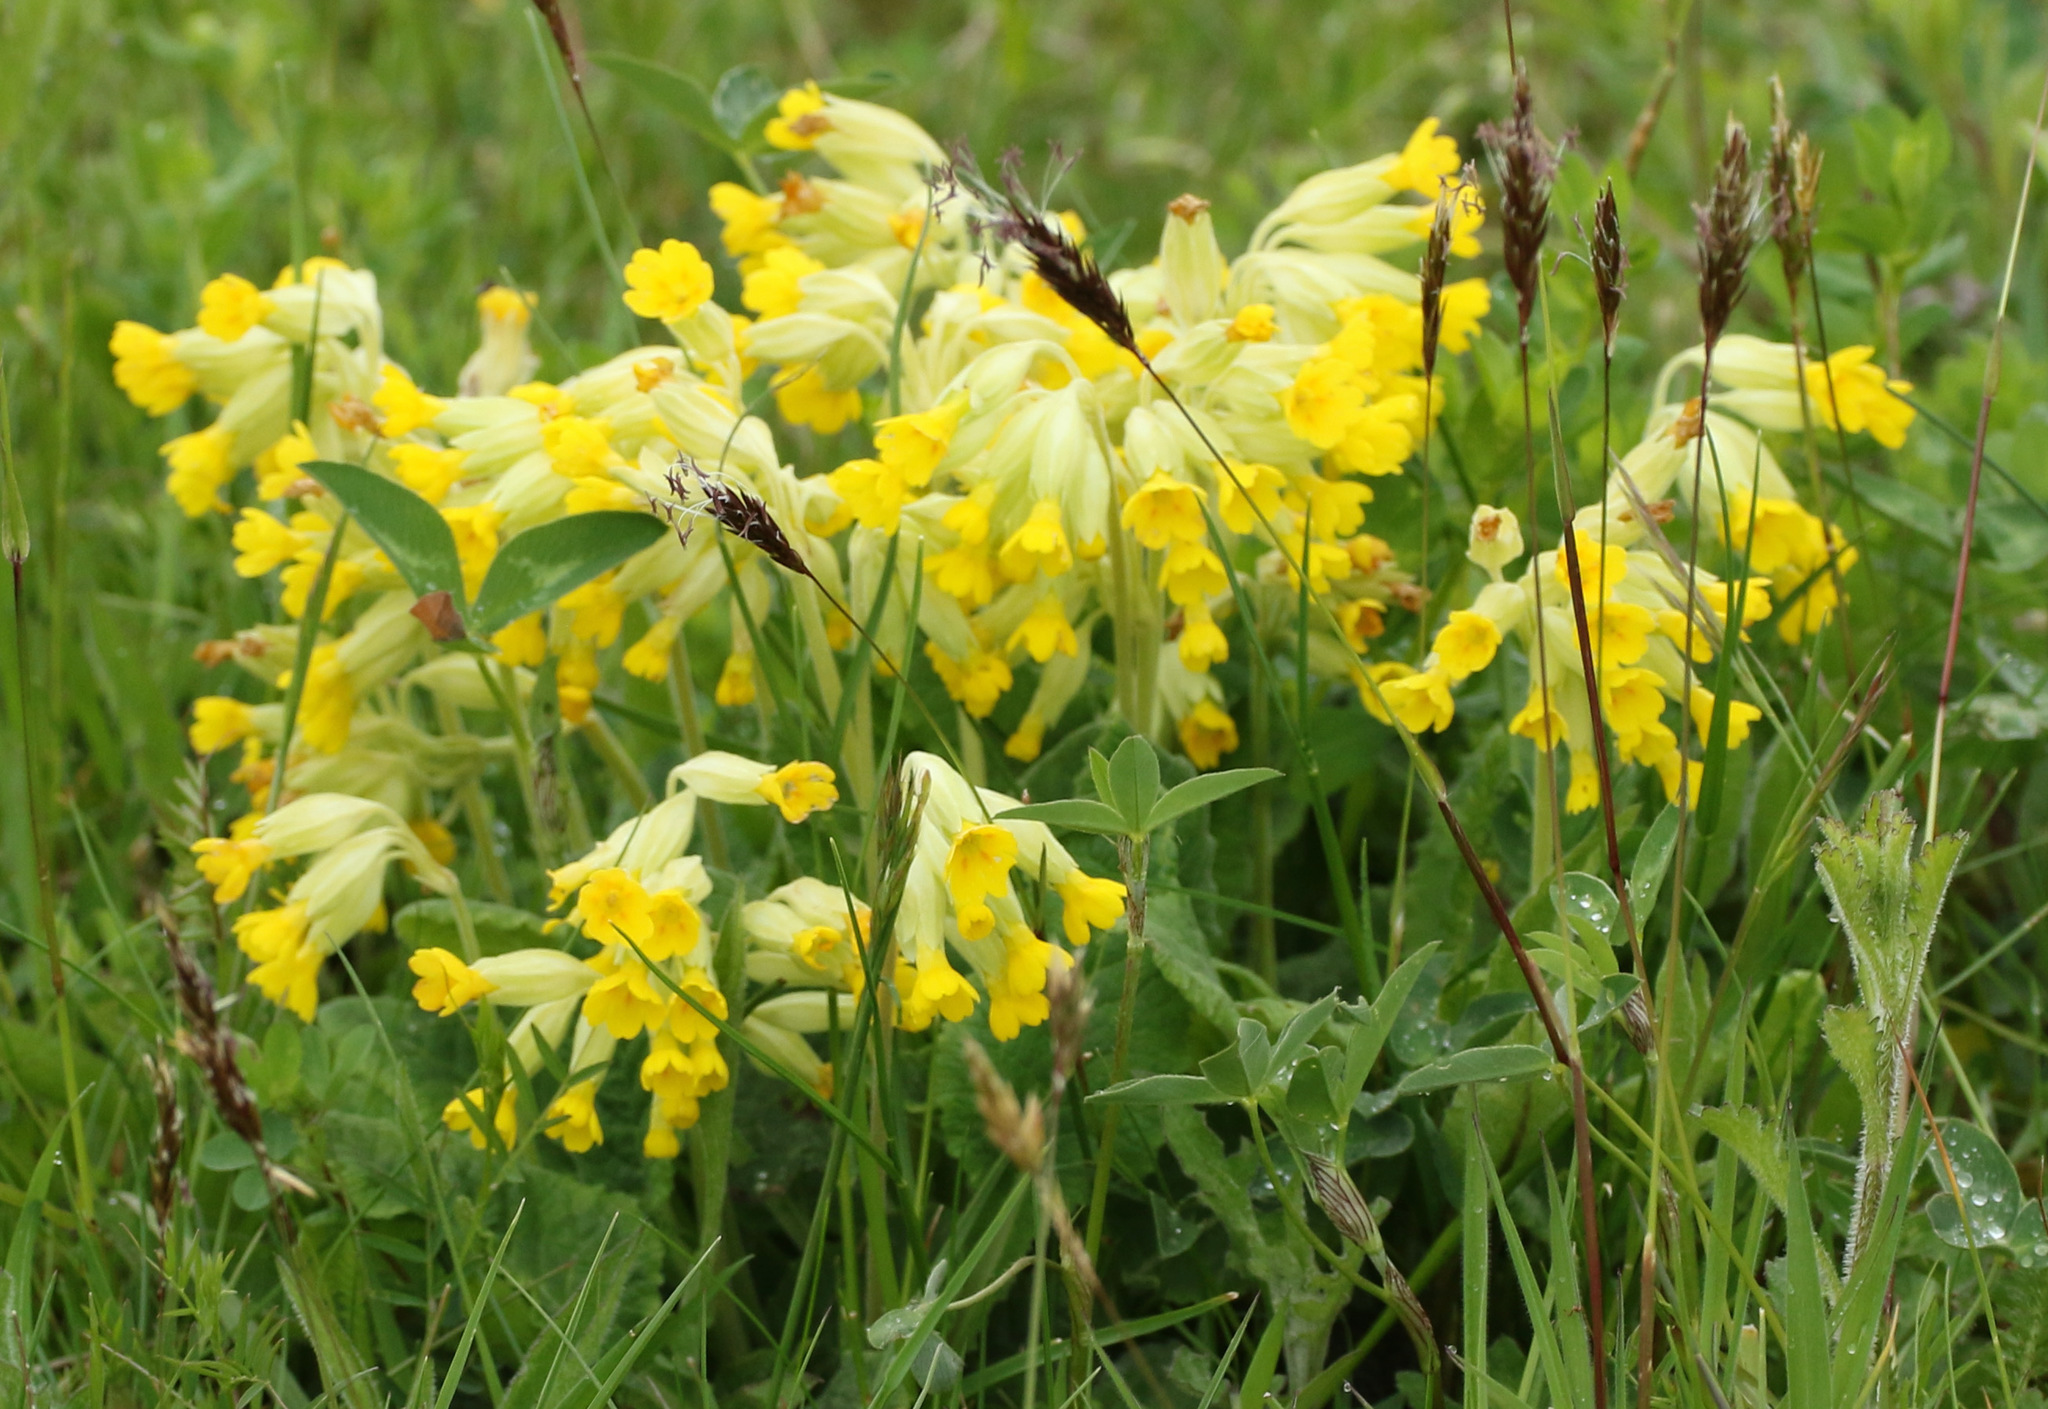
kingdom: Plantae
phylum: Tracheophyta
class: Magnoliopsida
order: Ericales
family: Primulaceae
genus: Primula
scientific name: Primula veris
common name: Cowslip
